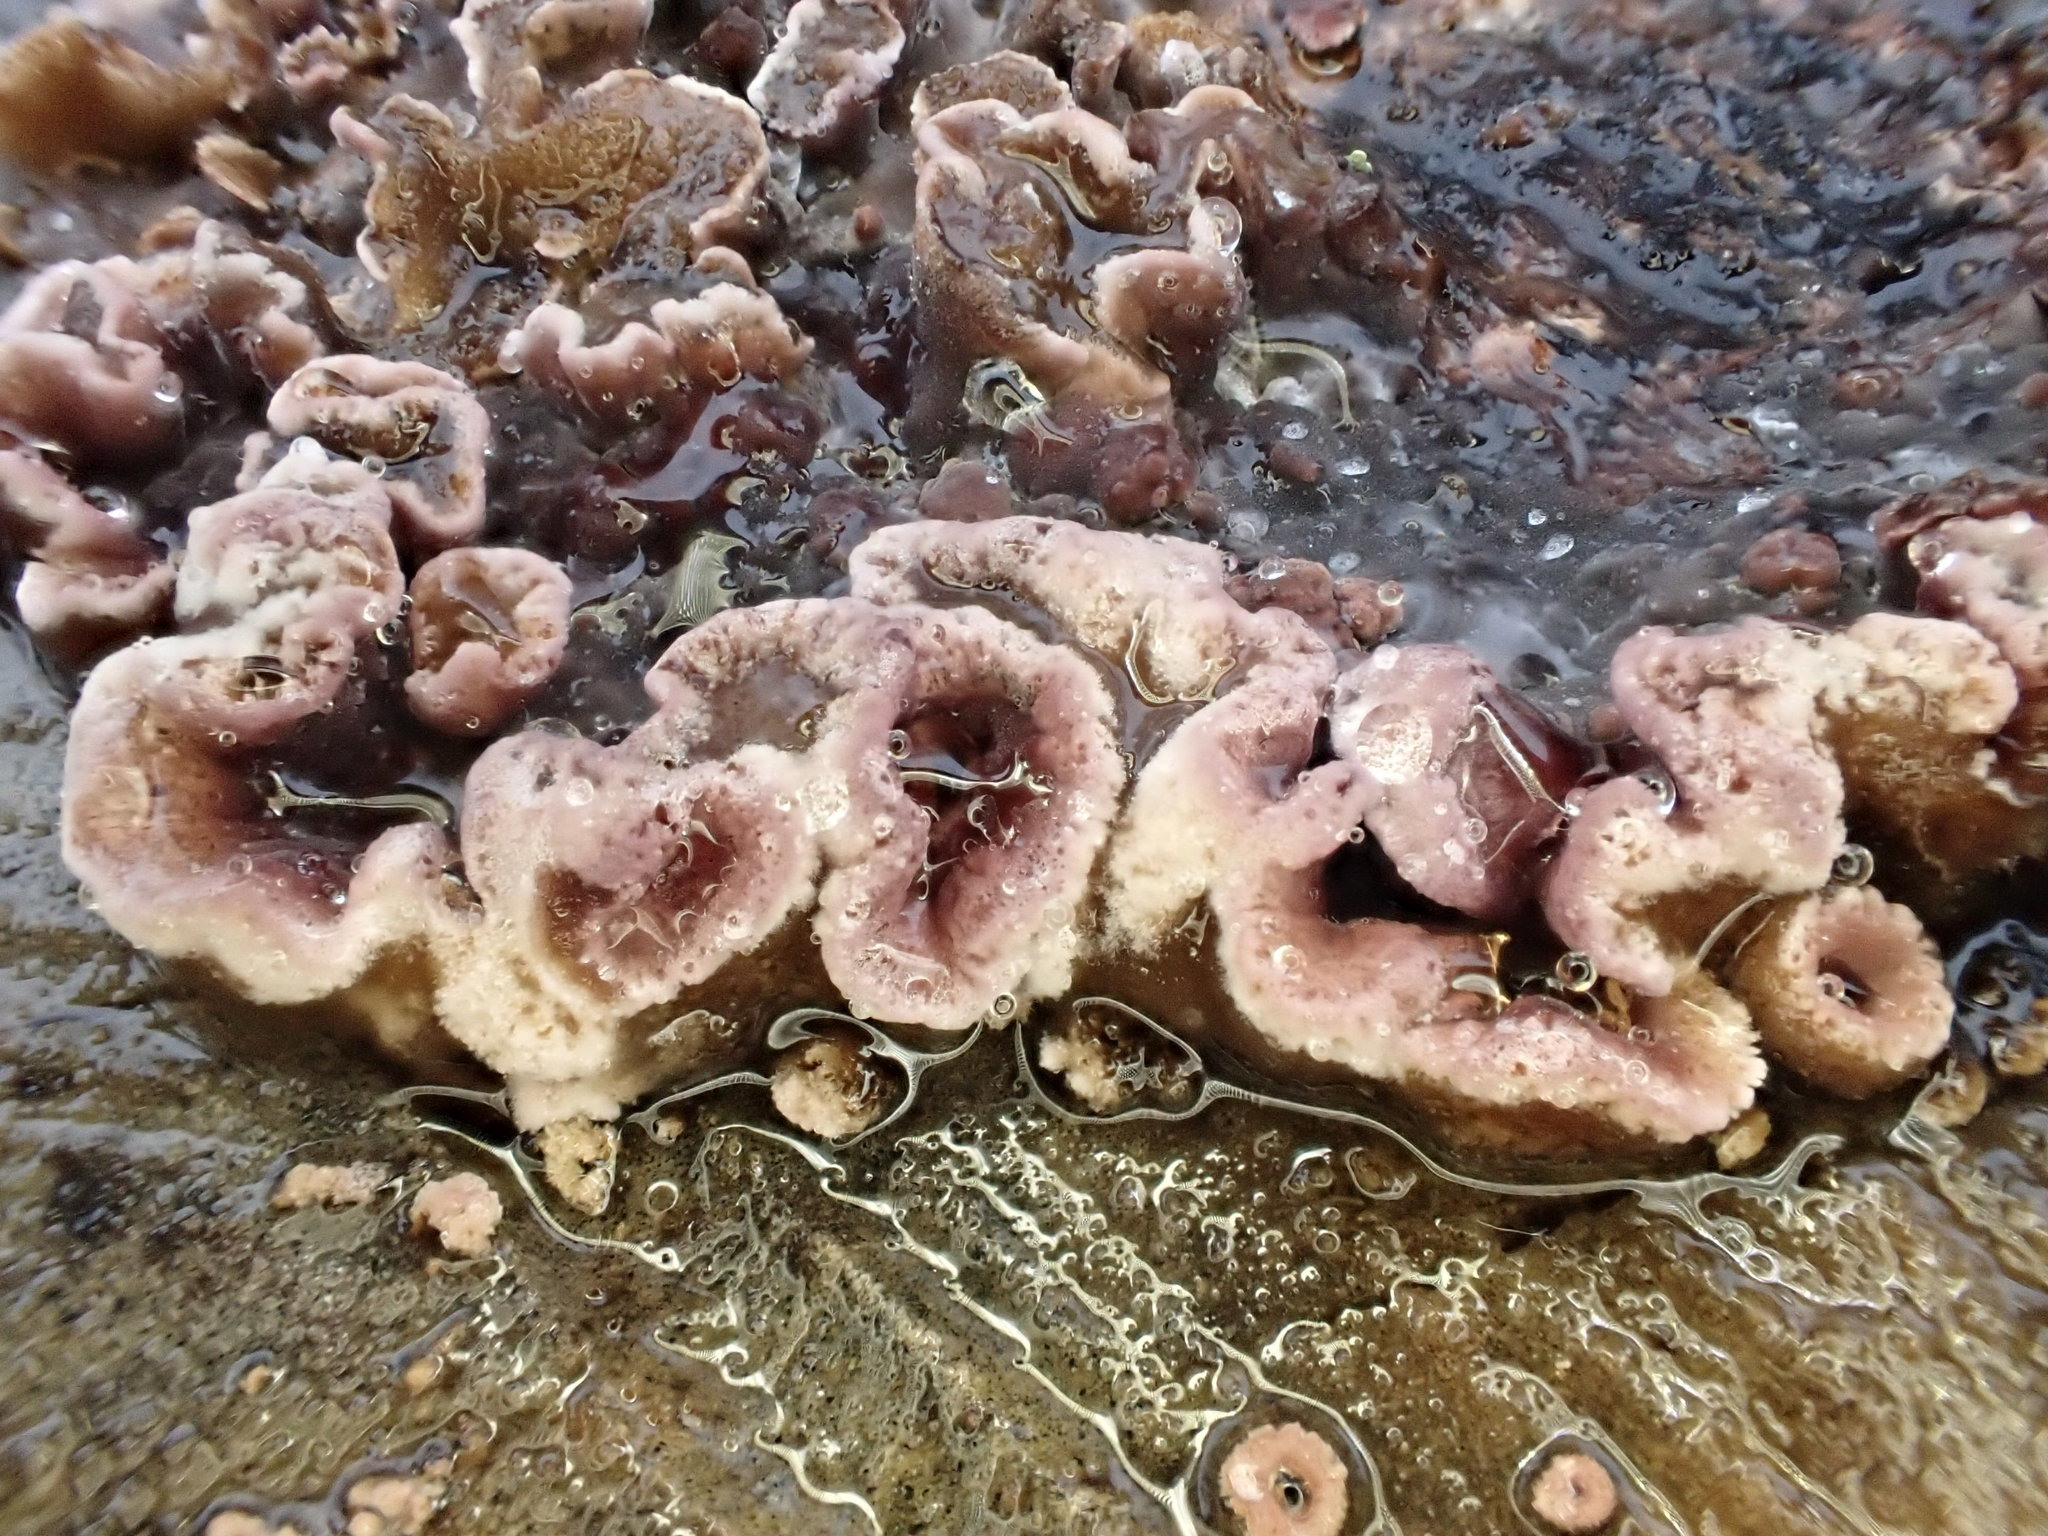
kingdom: Fungi
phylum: Basidiomycota
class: Agaricomycetes
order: Agaricales
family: Cyphellaceae
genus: Chondrostereum
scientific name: Chondrostereum purpureum
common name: Silver leaf disease
